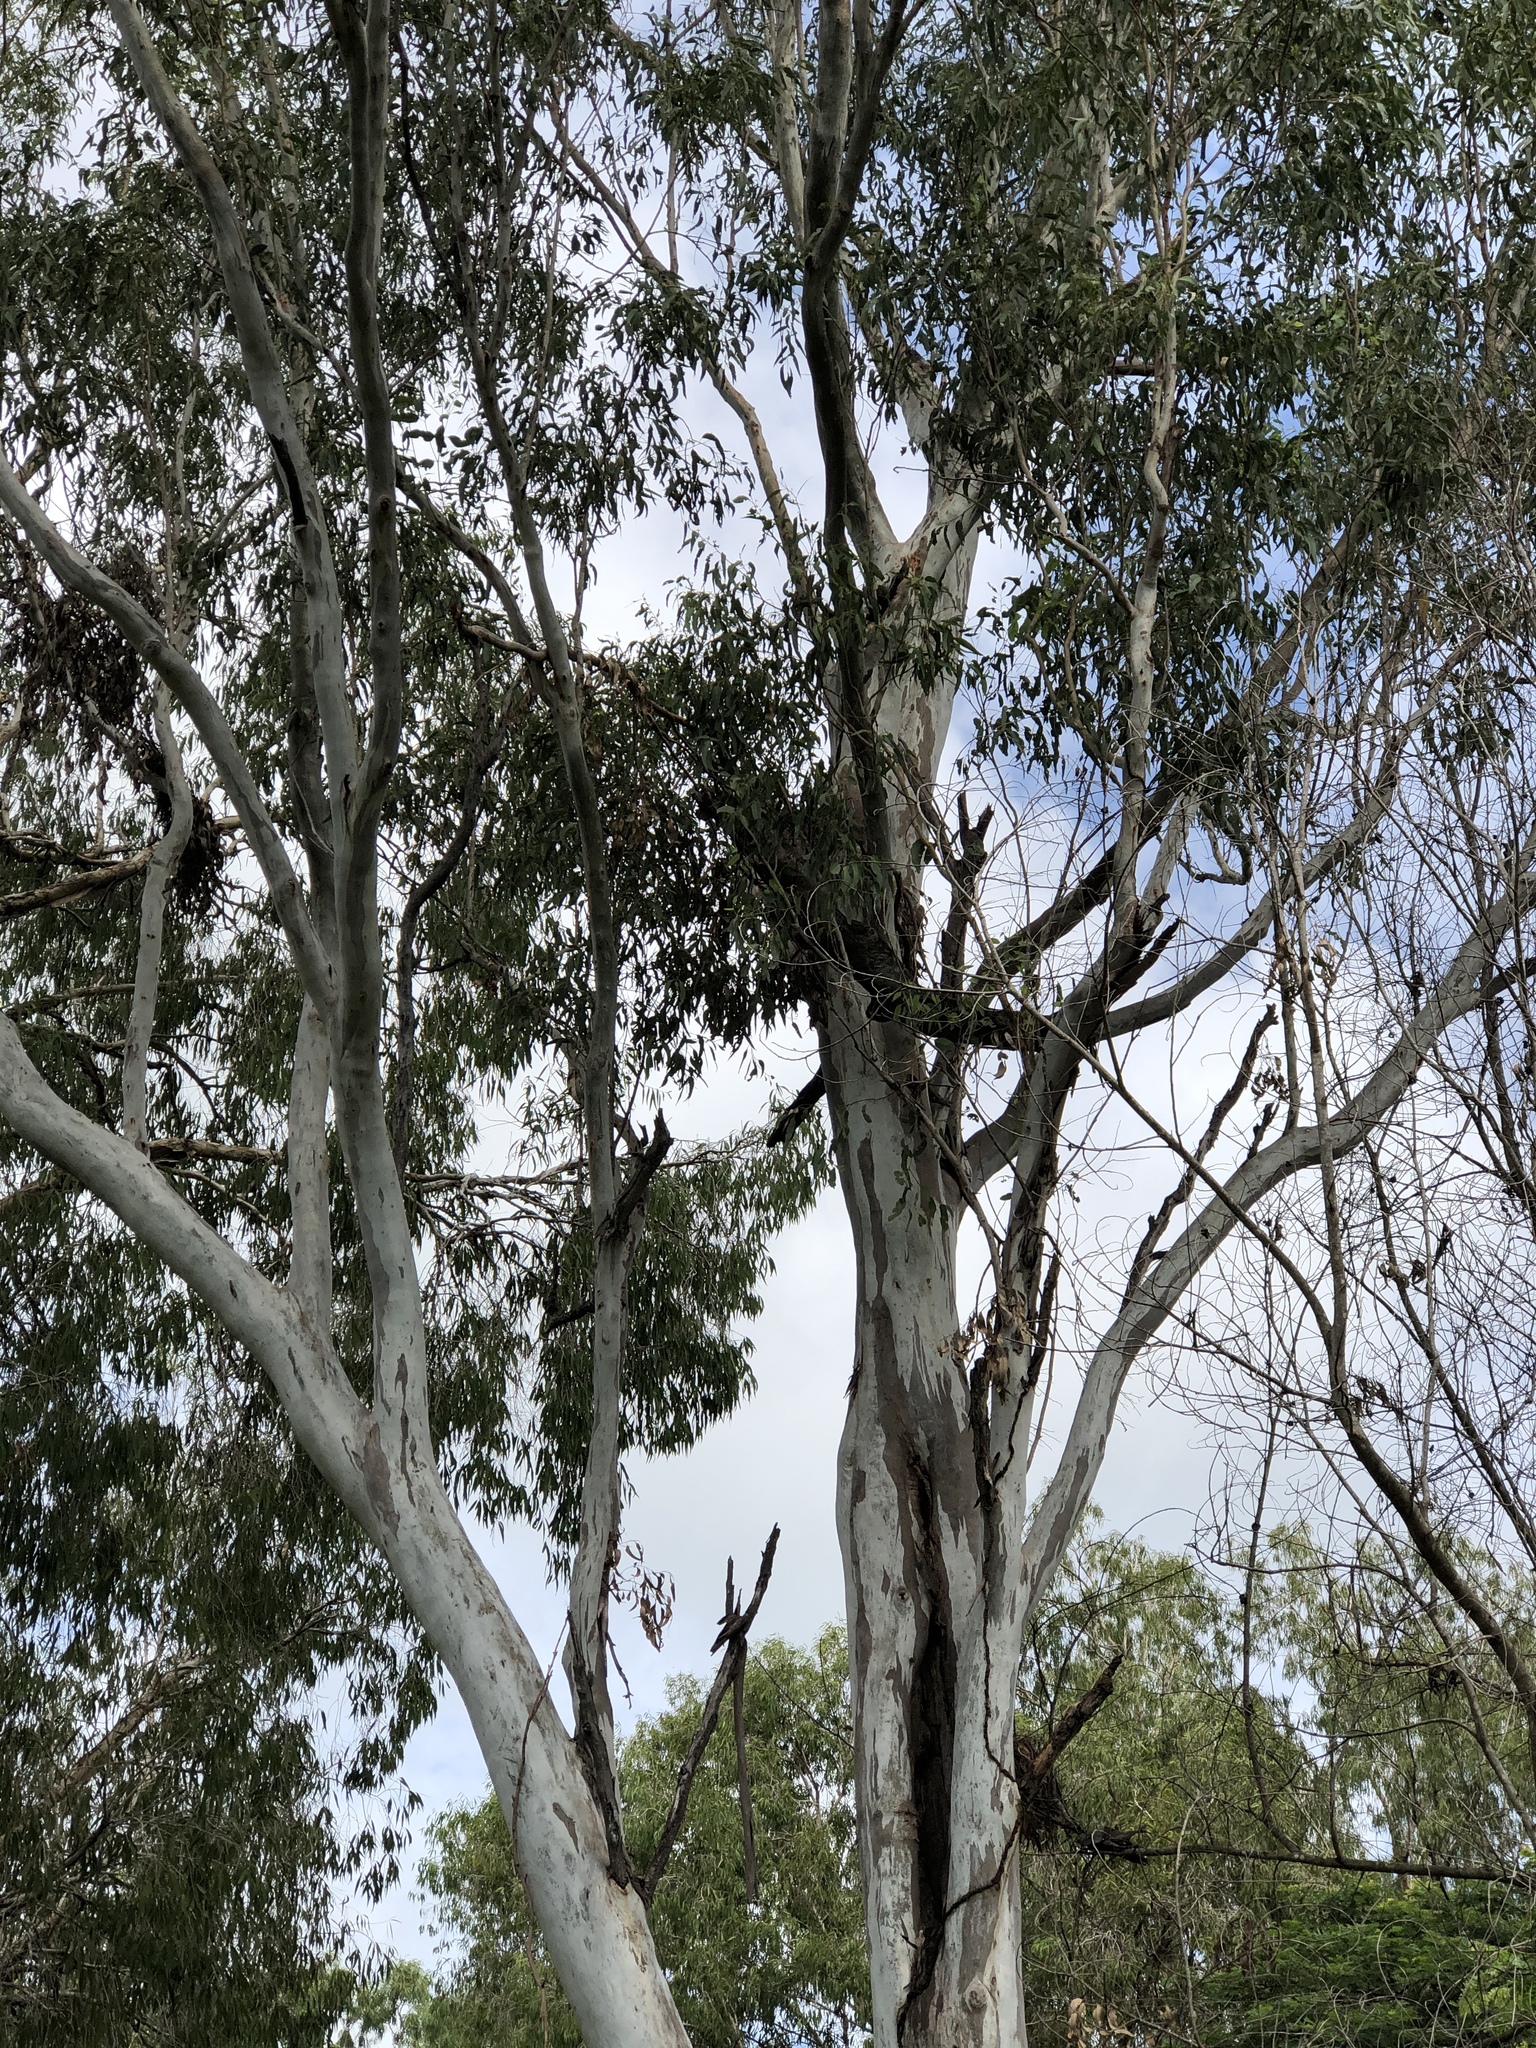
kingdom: Plantae
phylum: Tracheophyta
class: Magnoliopsida
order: Myrtales
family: Myrtaceae
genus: Eucalyptus
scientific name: Eucalyptus tereticornis
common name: Forest redgum
